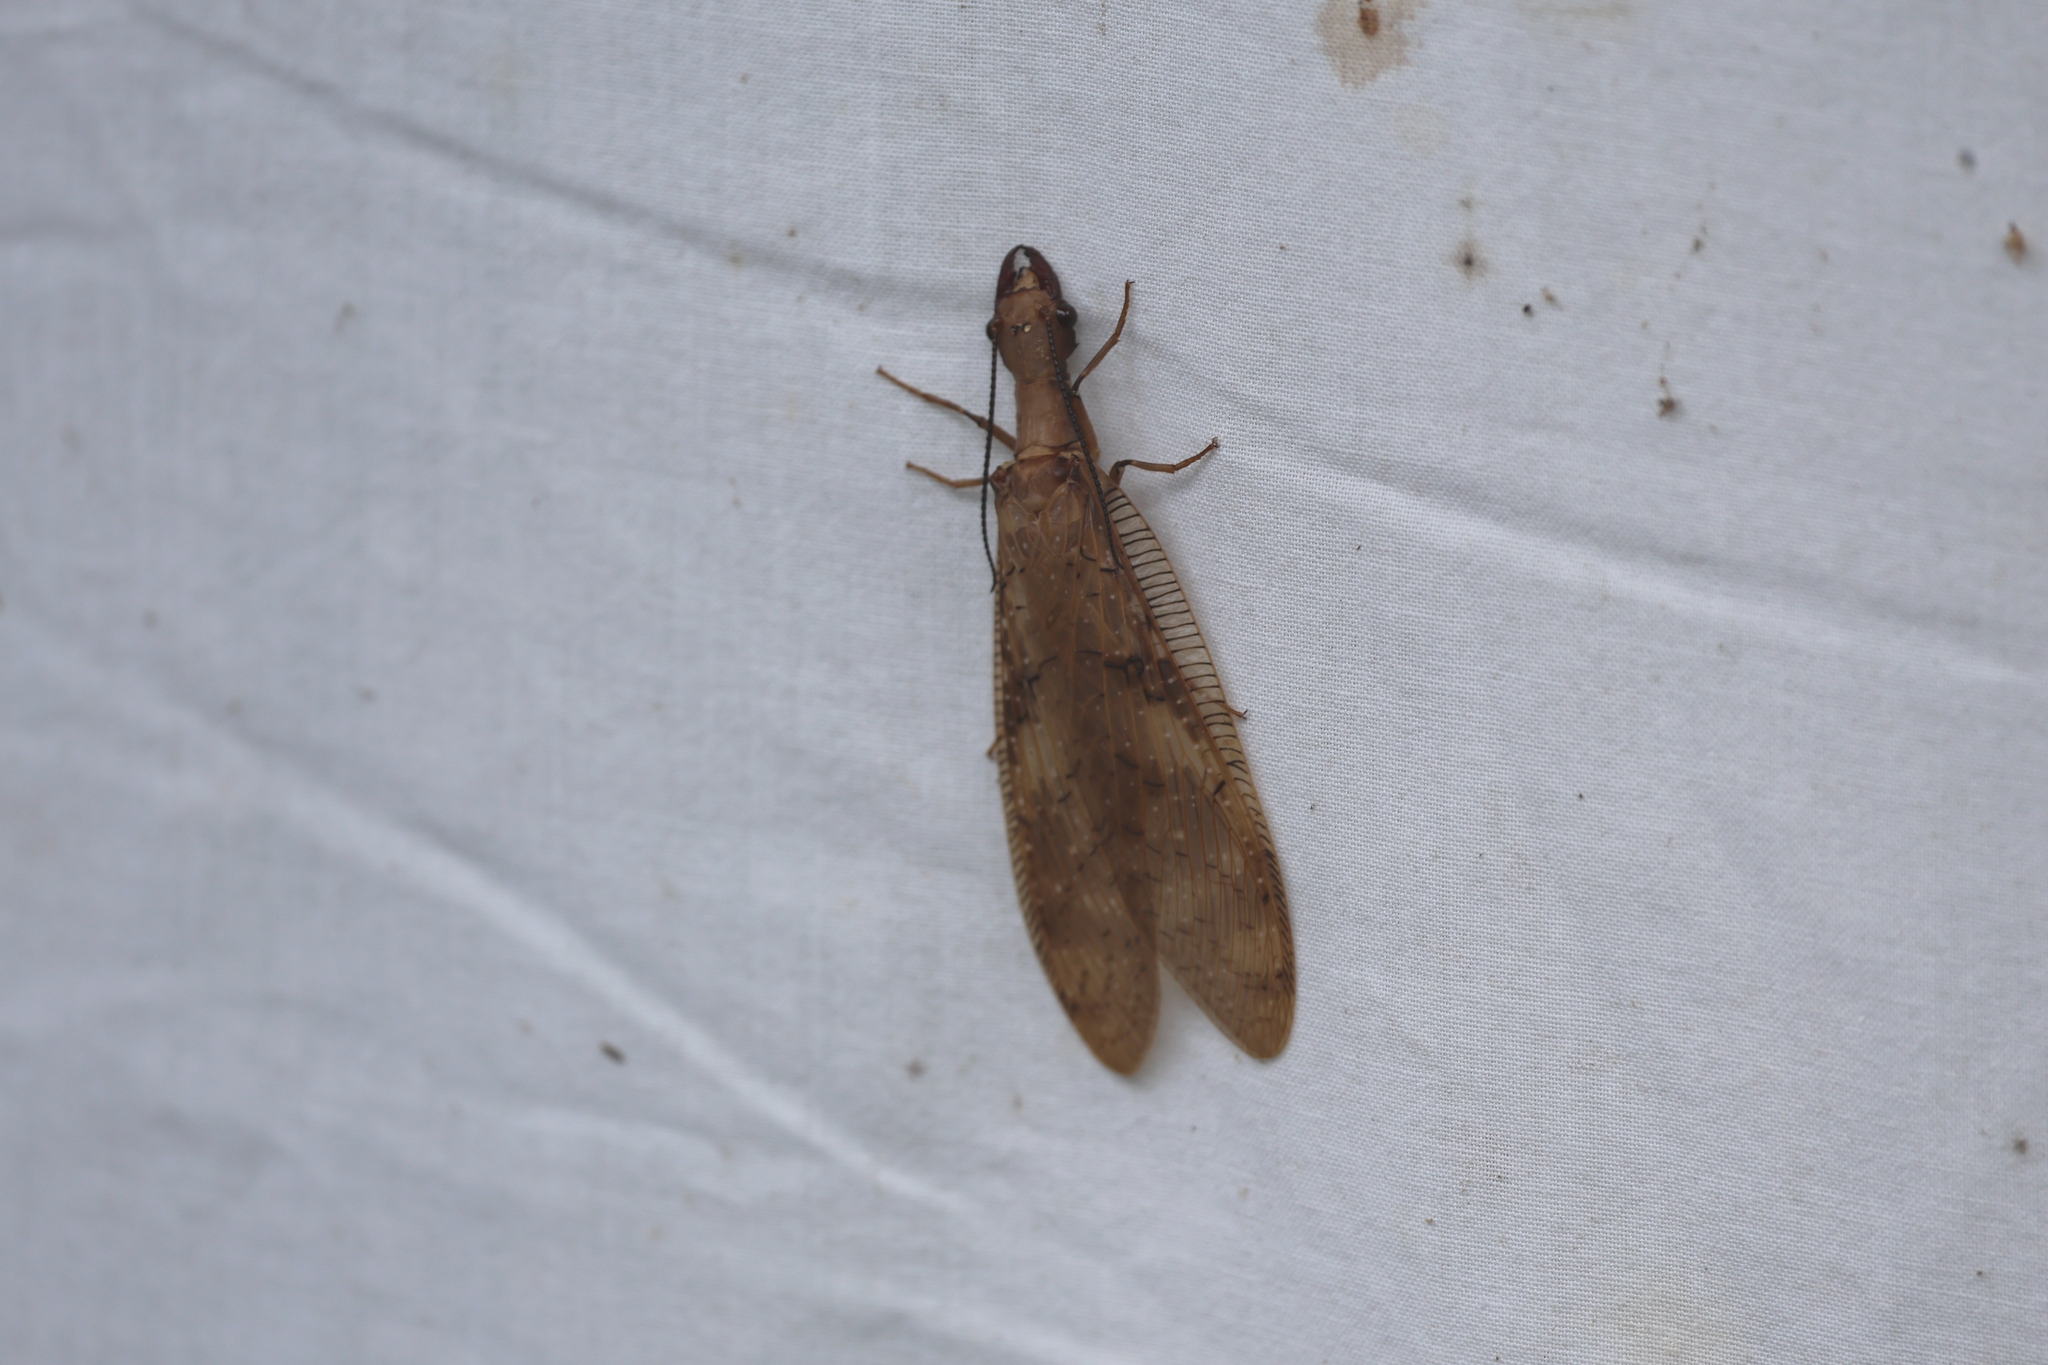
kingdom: Animalia
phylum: Arthropoda
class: Insecta
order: Megaloptera
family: Corydalidae
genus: Corydalus
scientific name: Corydalus flavicornis
